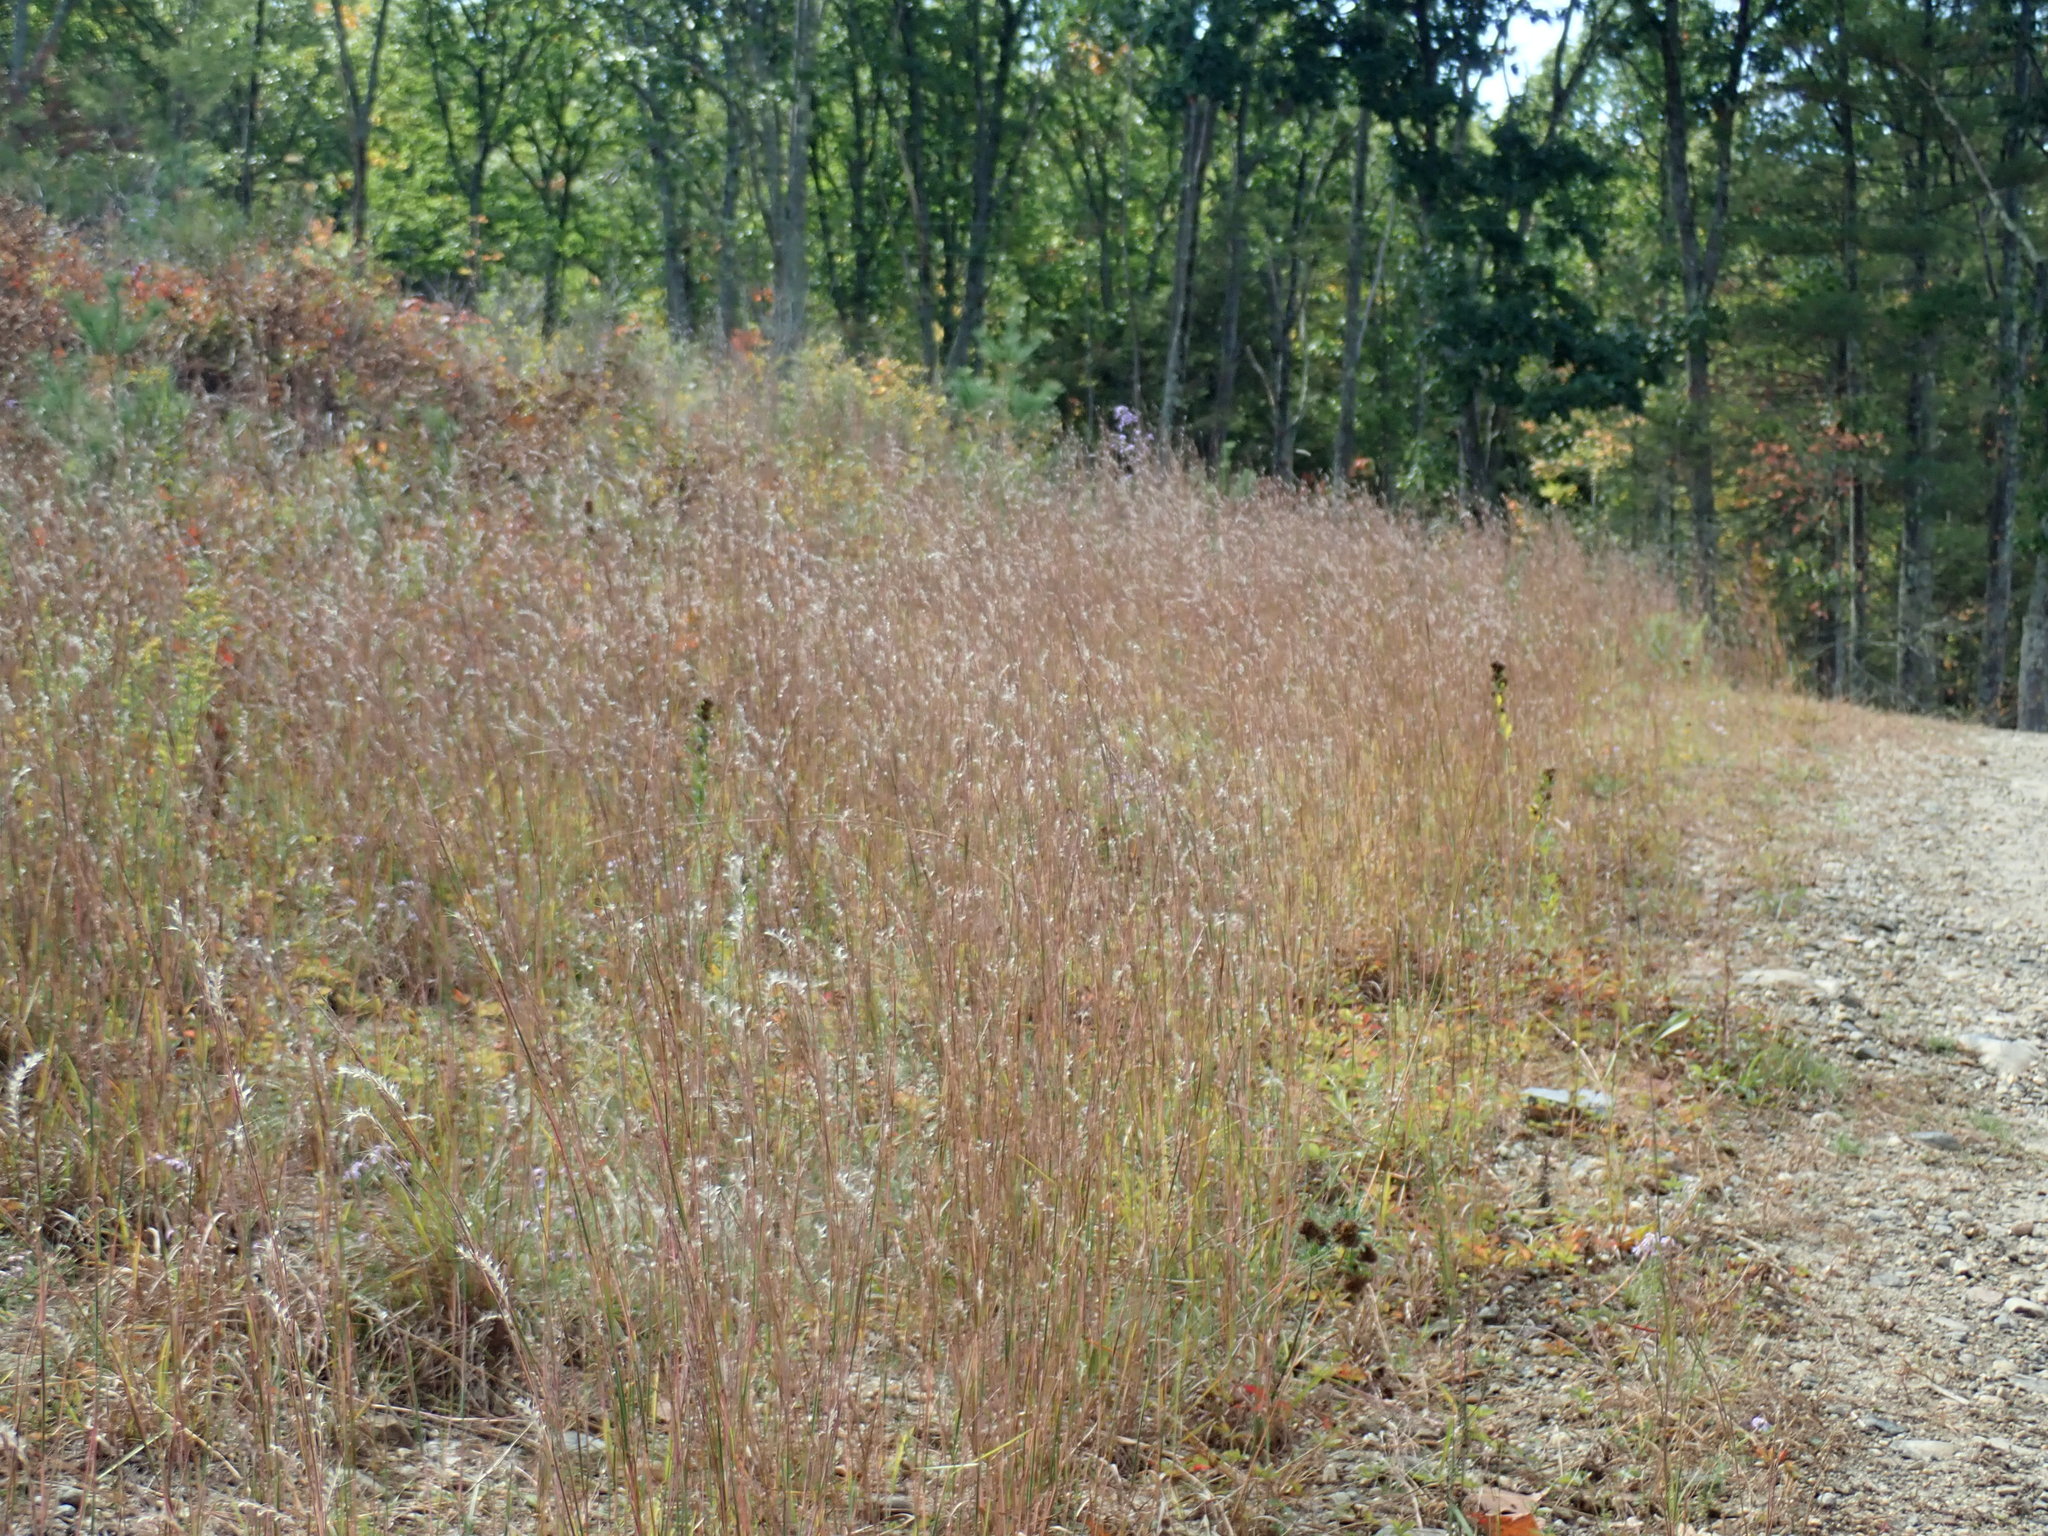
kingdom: Plantae
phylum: Tracheophyta
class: Liliopsida
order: Poales
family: Poaceae
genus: Schizachyrium
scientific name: Schizachyrium scoparium
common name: Little bluestem
